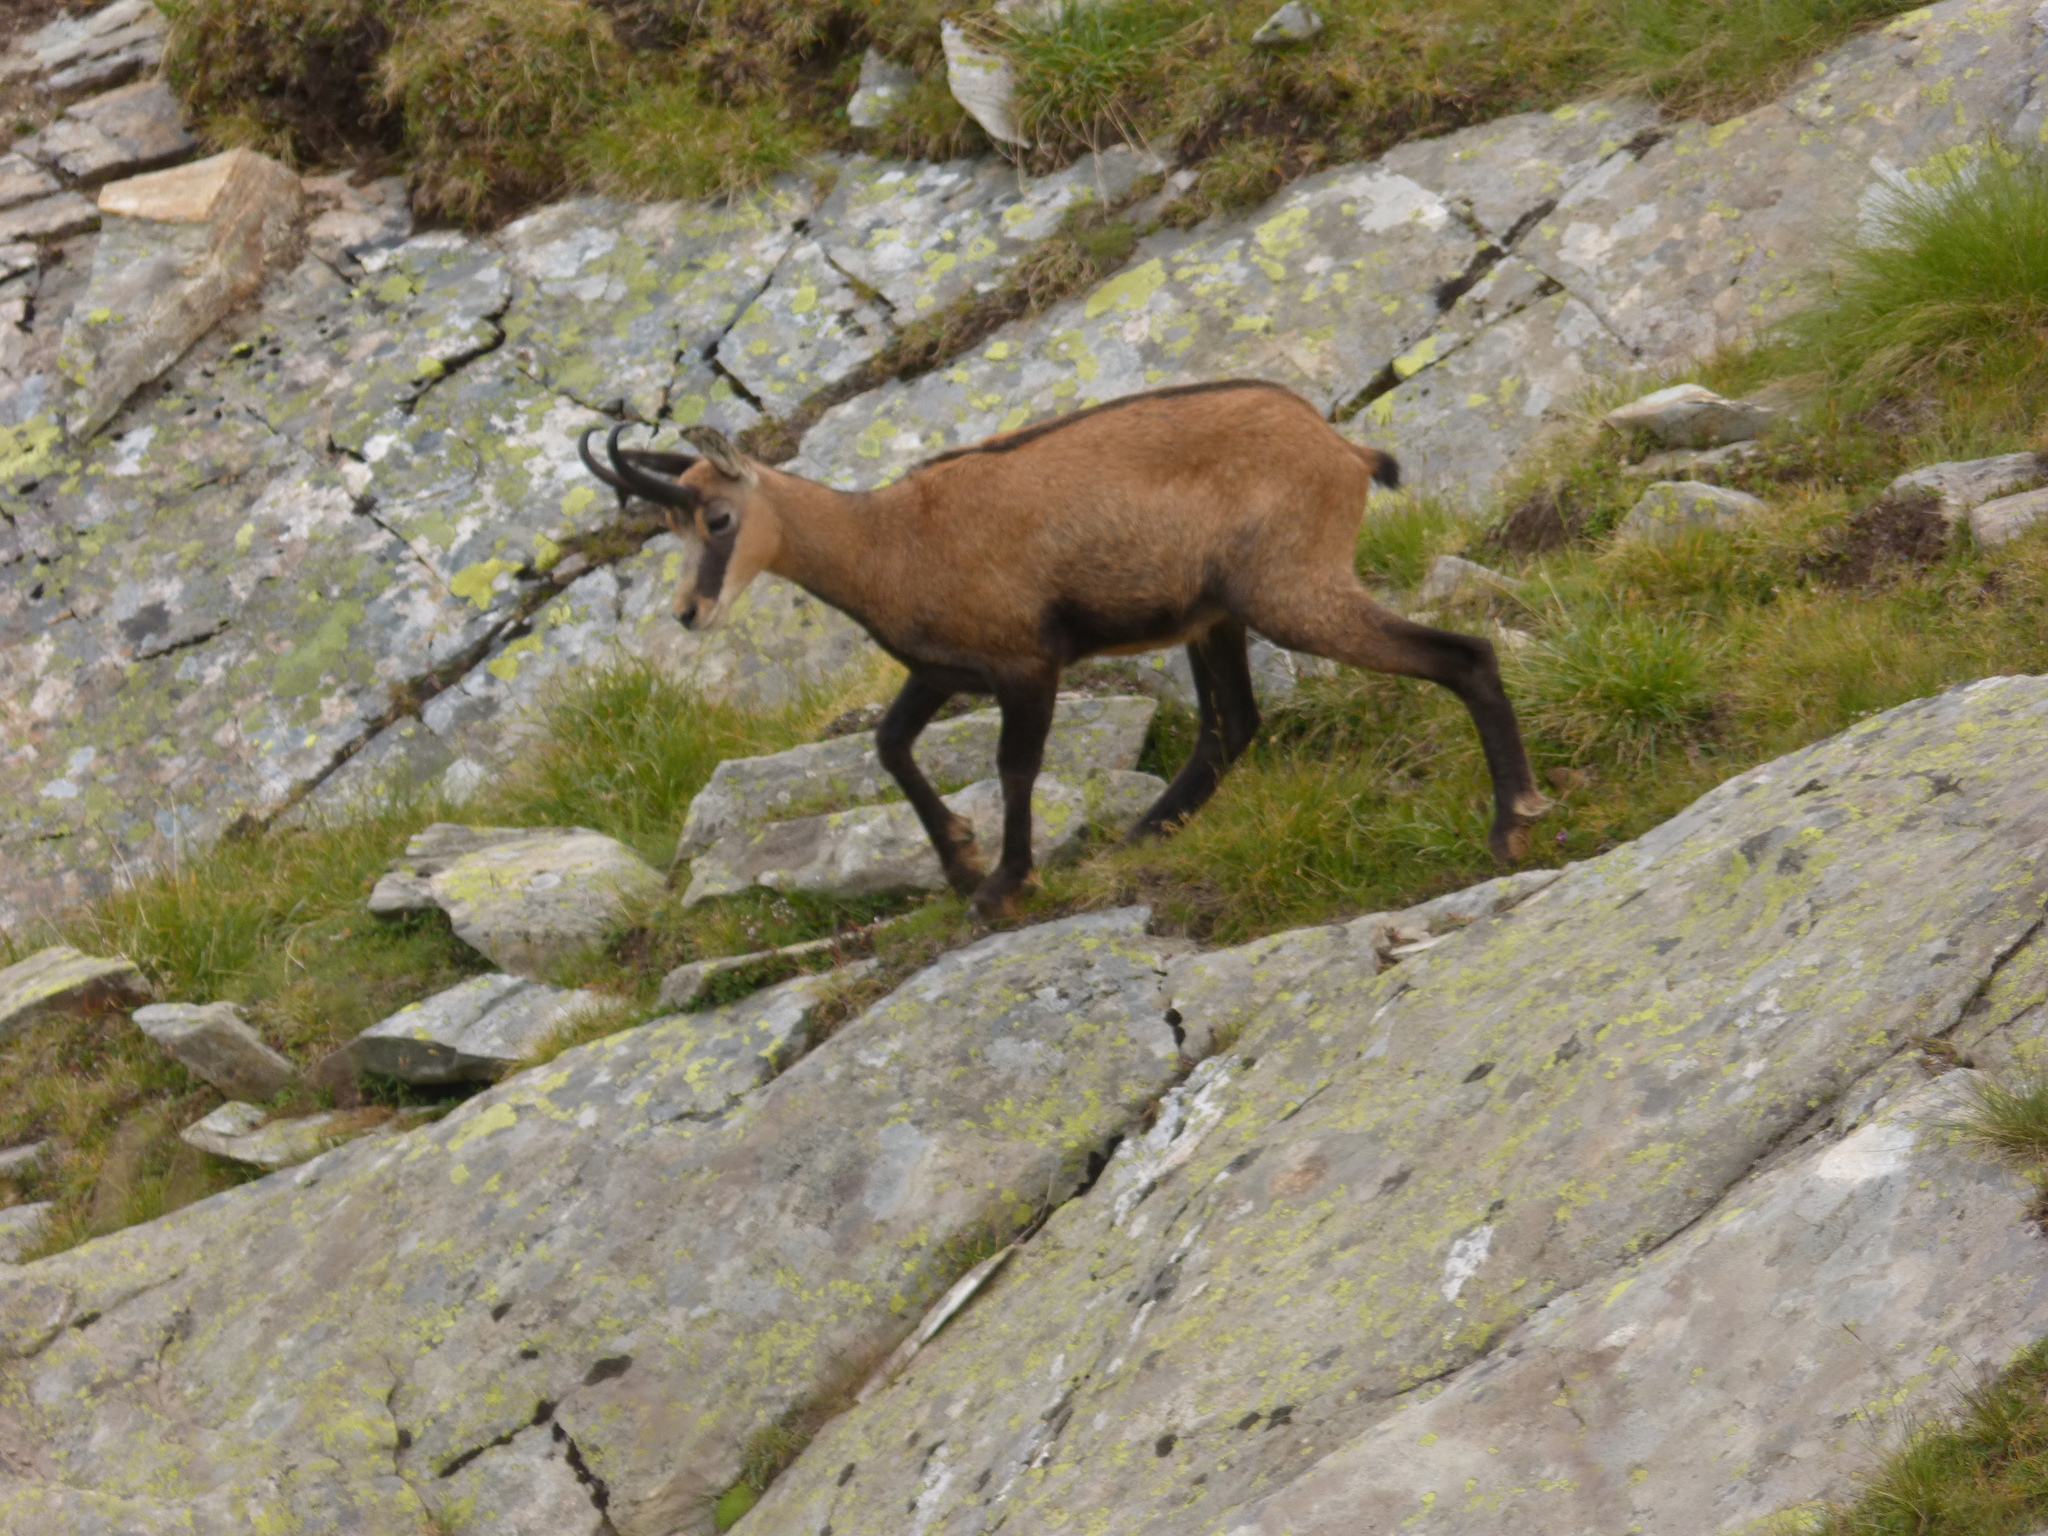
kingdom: Animalia
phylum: Chordata
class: Mammalia
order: Artiodactyla
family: Bovidae
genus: Rupicapra
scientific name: Rupicapra rupicapra
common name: Chamois
